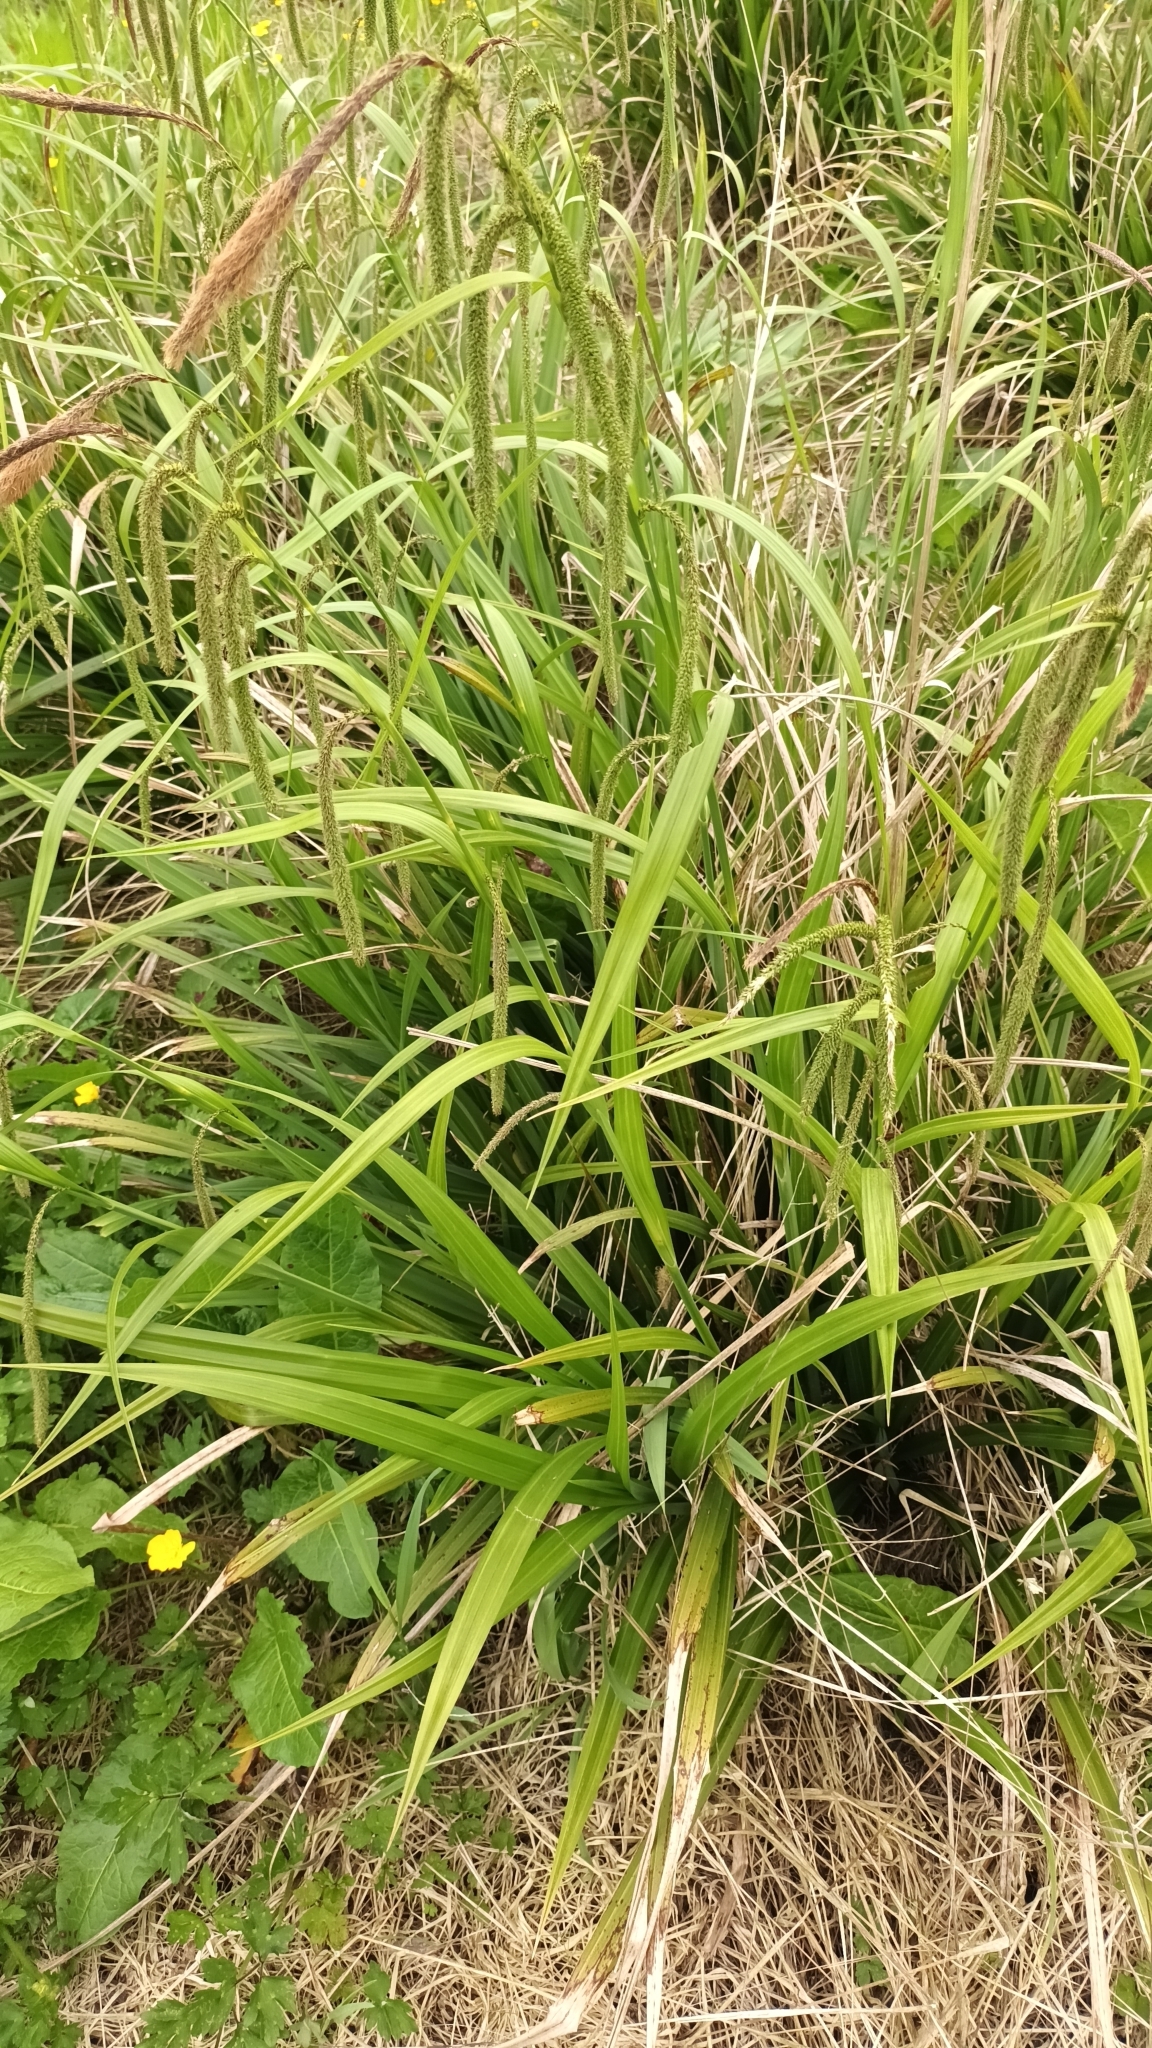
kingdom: Plantae
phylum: Tracheophyta
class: Liliopsida
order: Poales
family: Cyperaceae
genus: Carex
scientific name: Carex pendula
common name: Pendulous sedge
